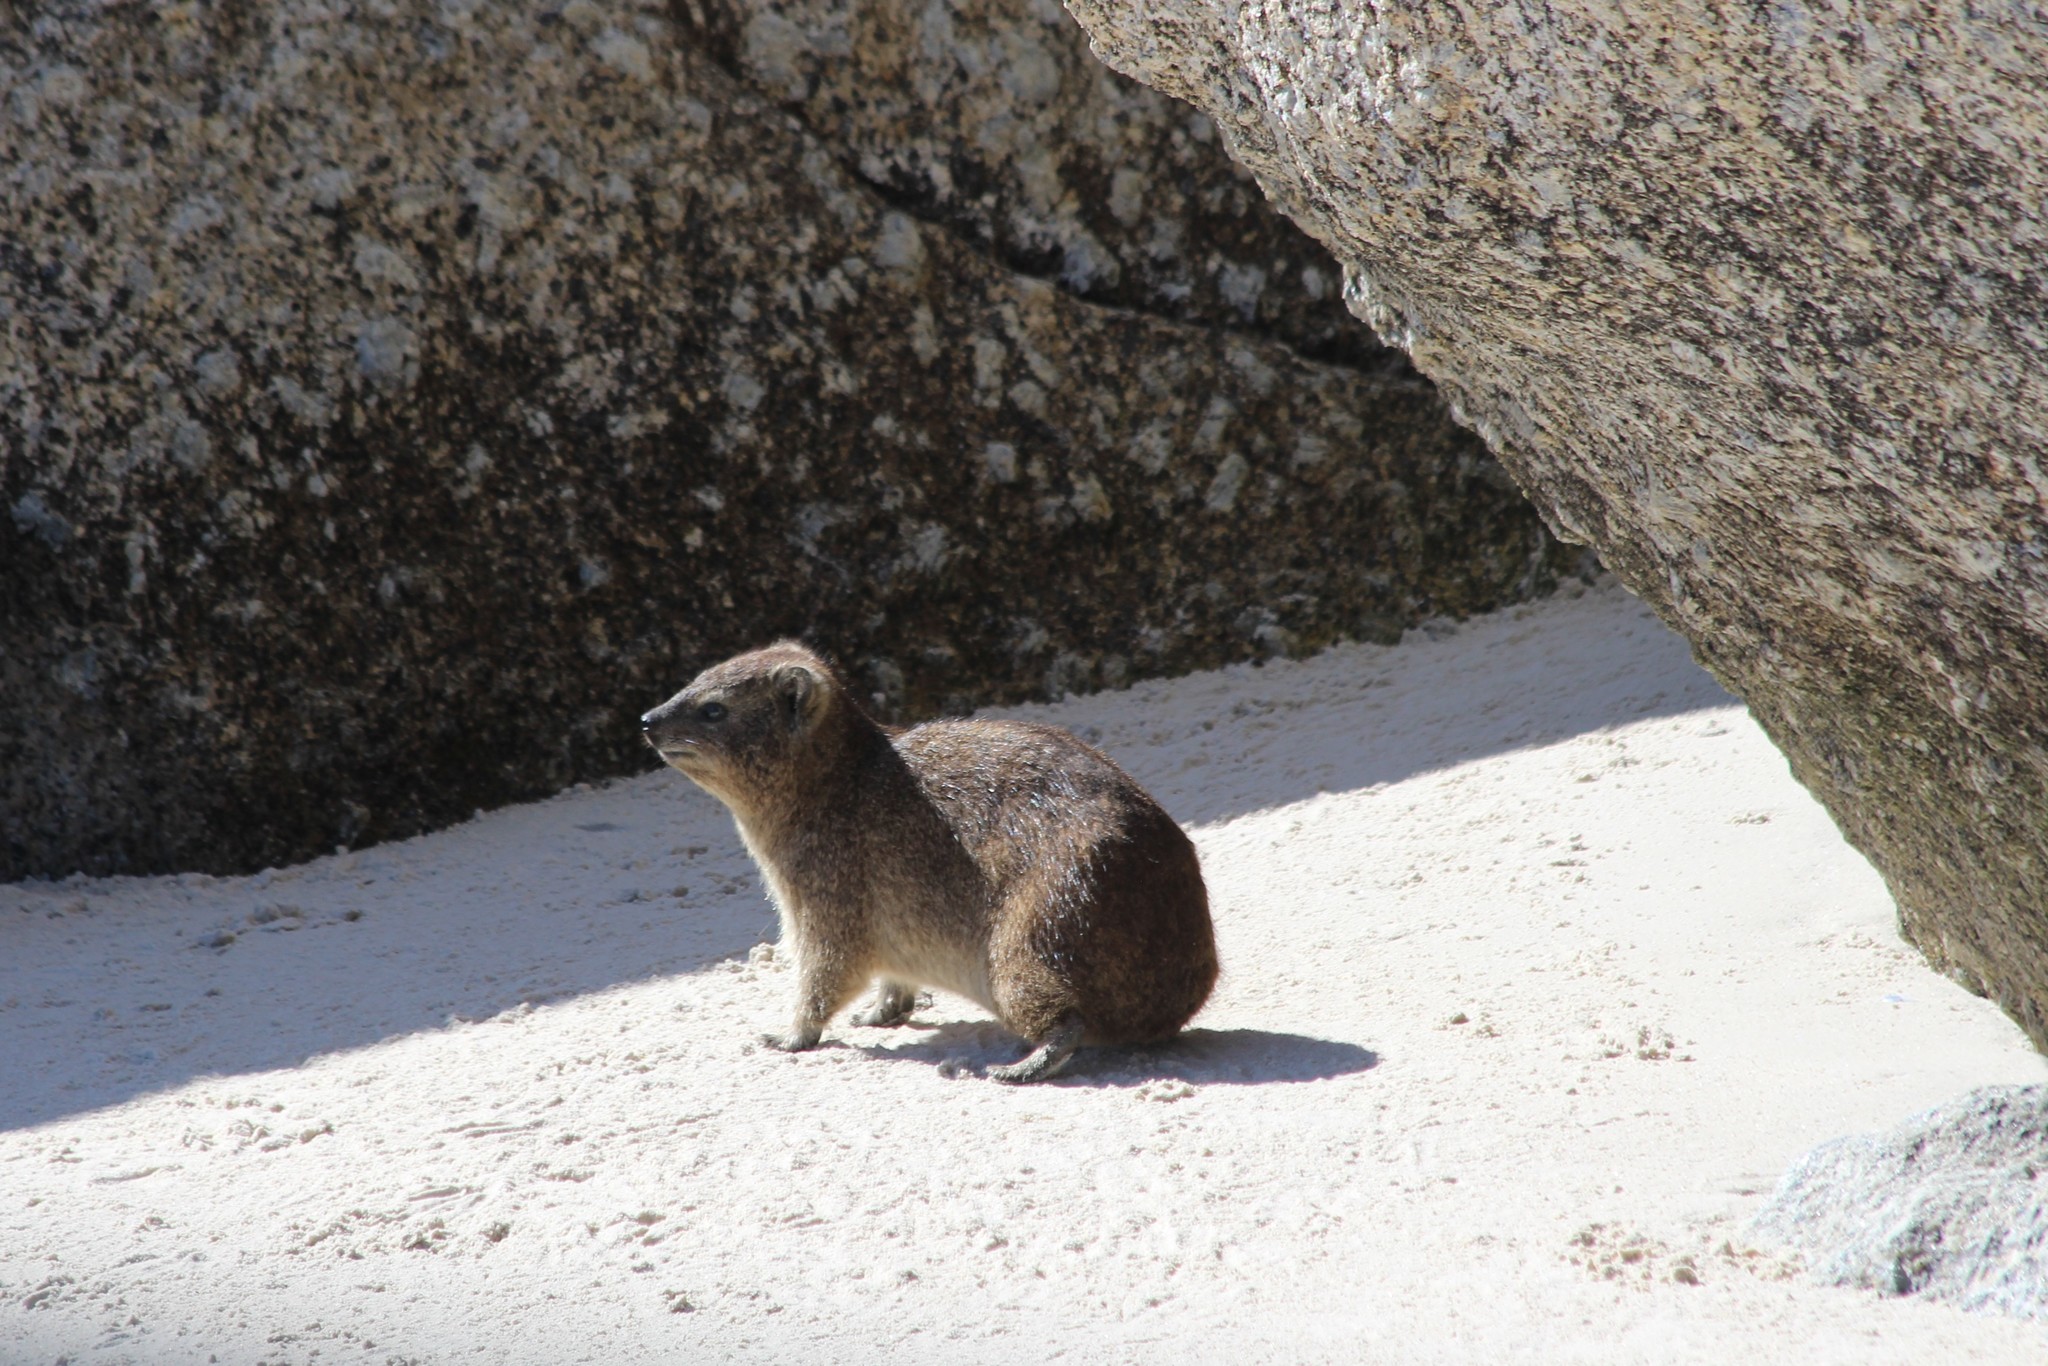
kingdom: Animalia
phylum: Chordata
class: Mammalia
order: Hyracoidea
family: Procaviidae
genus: Procavia
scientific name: Procavia capensis
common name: Rock hyrax
